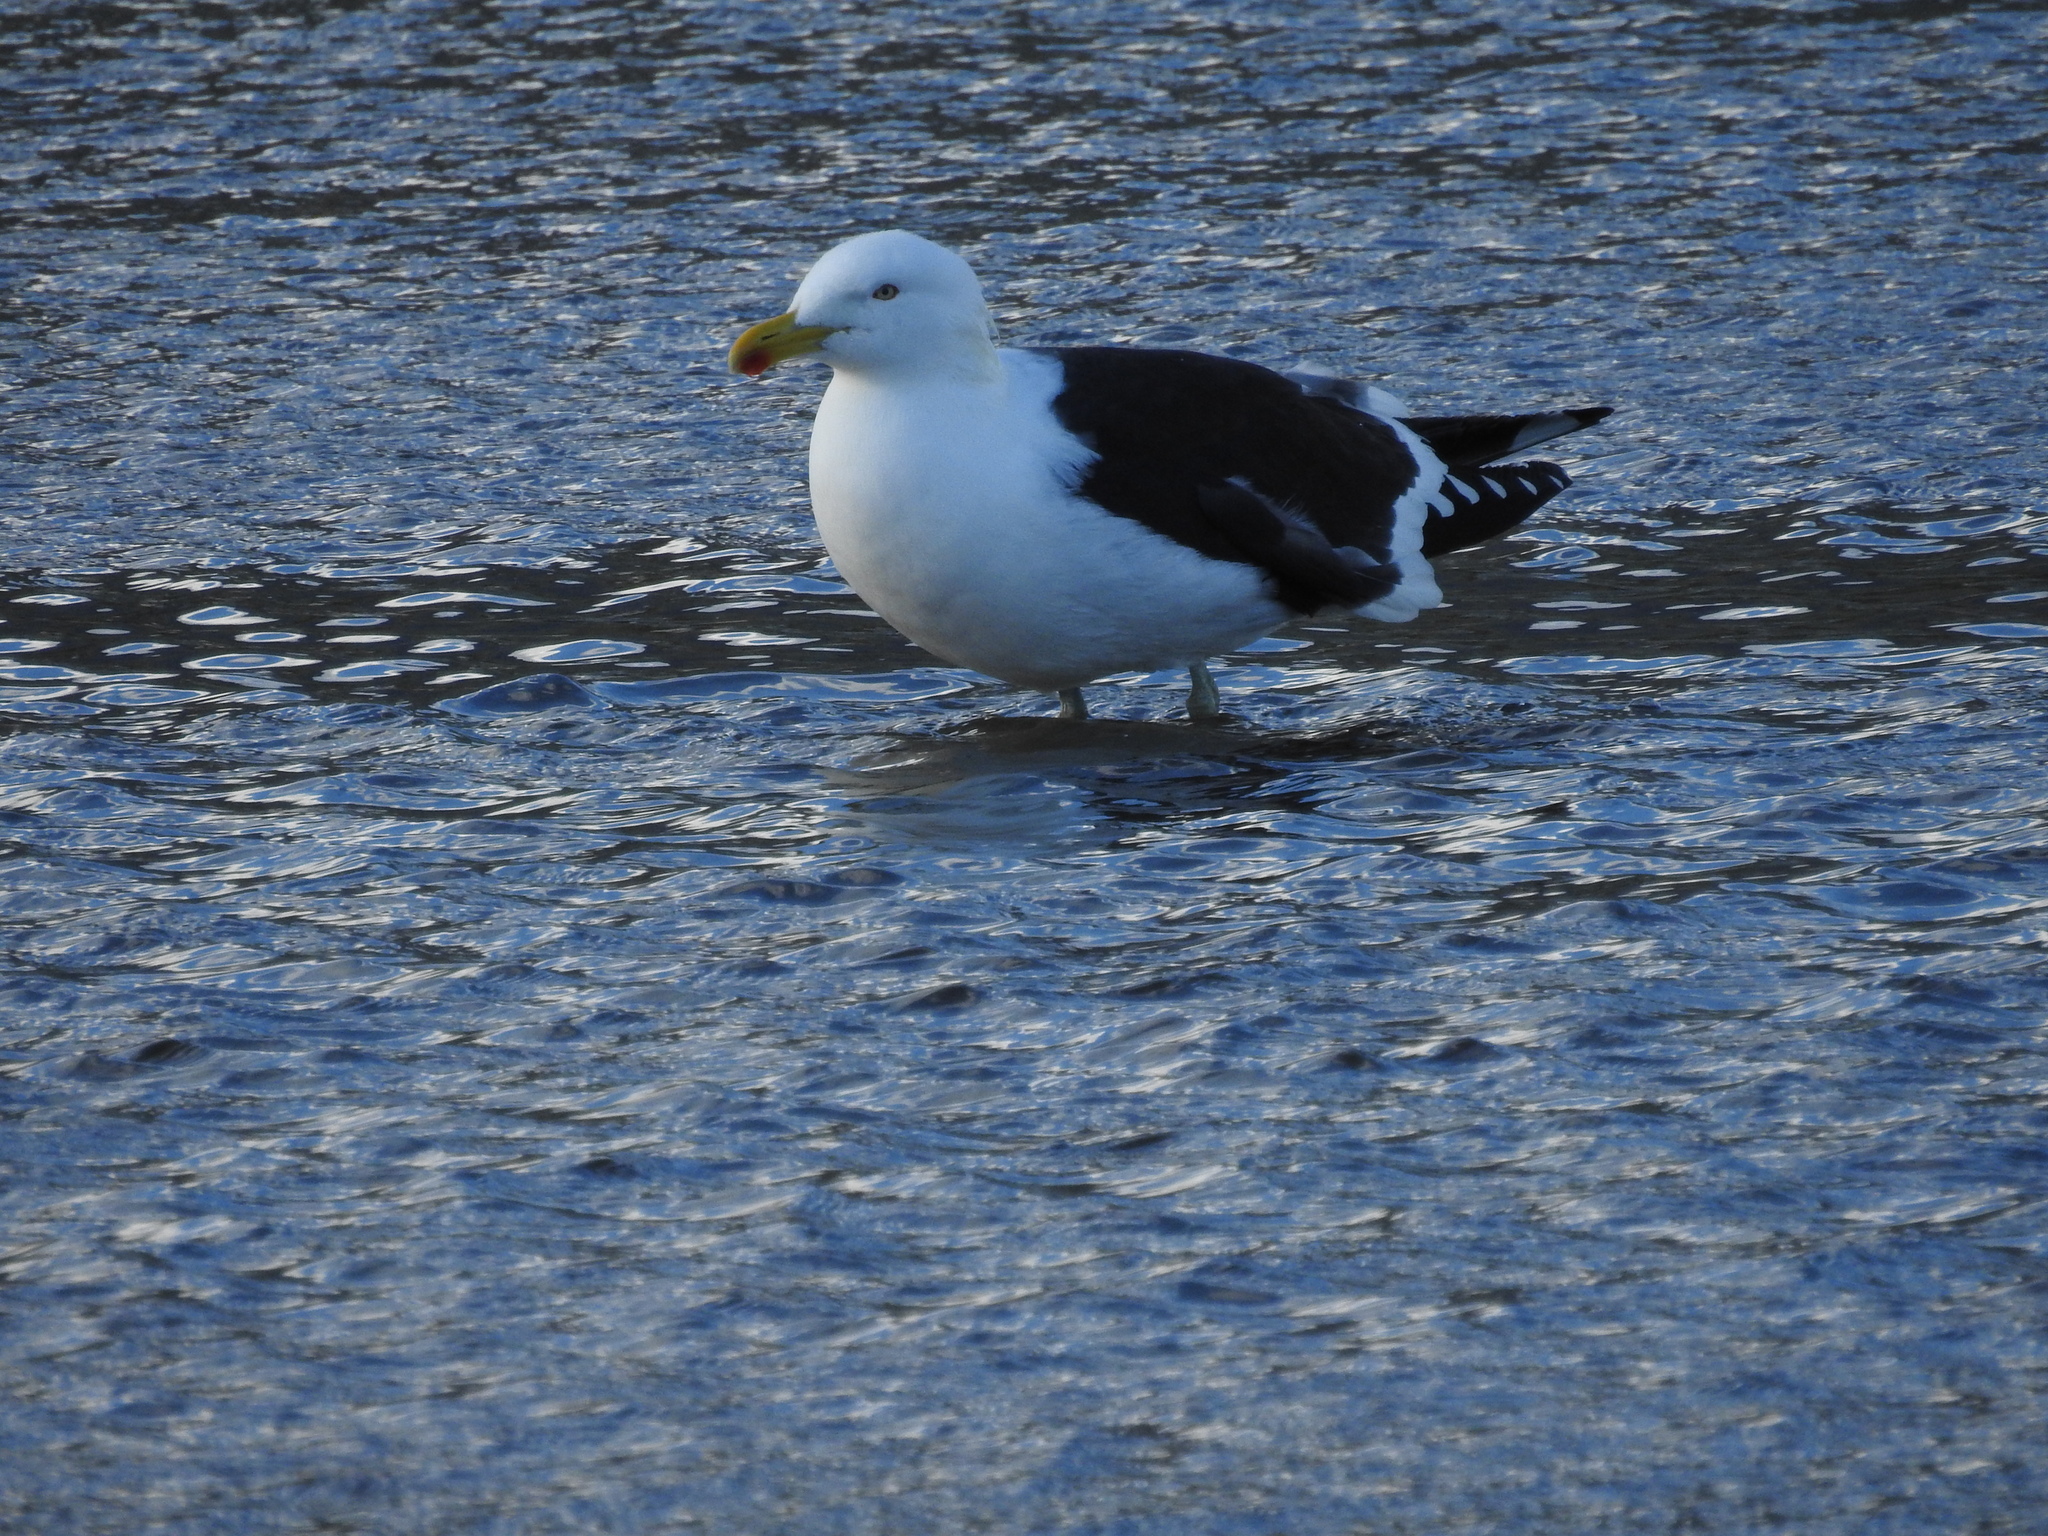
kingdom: Animalia
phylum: Chordata
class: Aves
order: Charadriiformes
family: Laridae
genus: Larus
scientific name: Larus dominicanus
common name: Kelp gull
